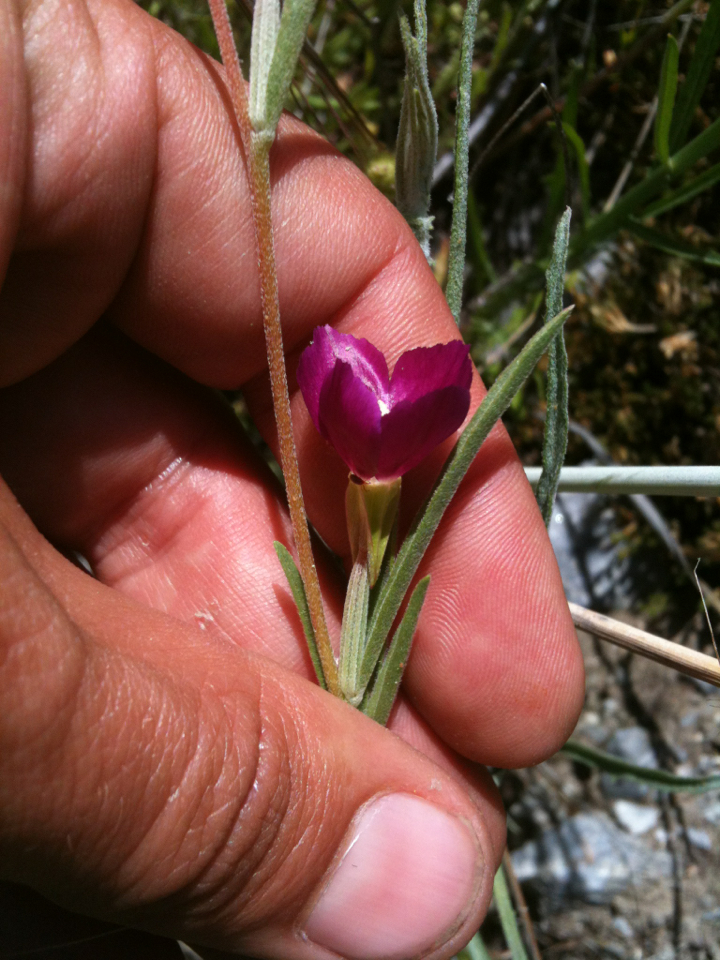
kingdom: Plantae
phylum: Tracheophyta
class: Magnoliopsida
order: Myrtales
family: Onagraceae
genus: Clarkia
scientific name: Clarkia purpurea
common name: Purple clarkia
